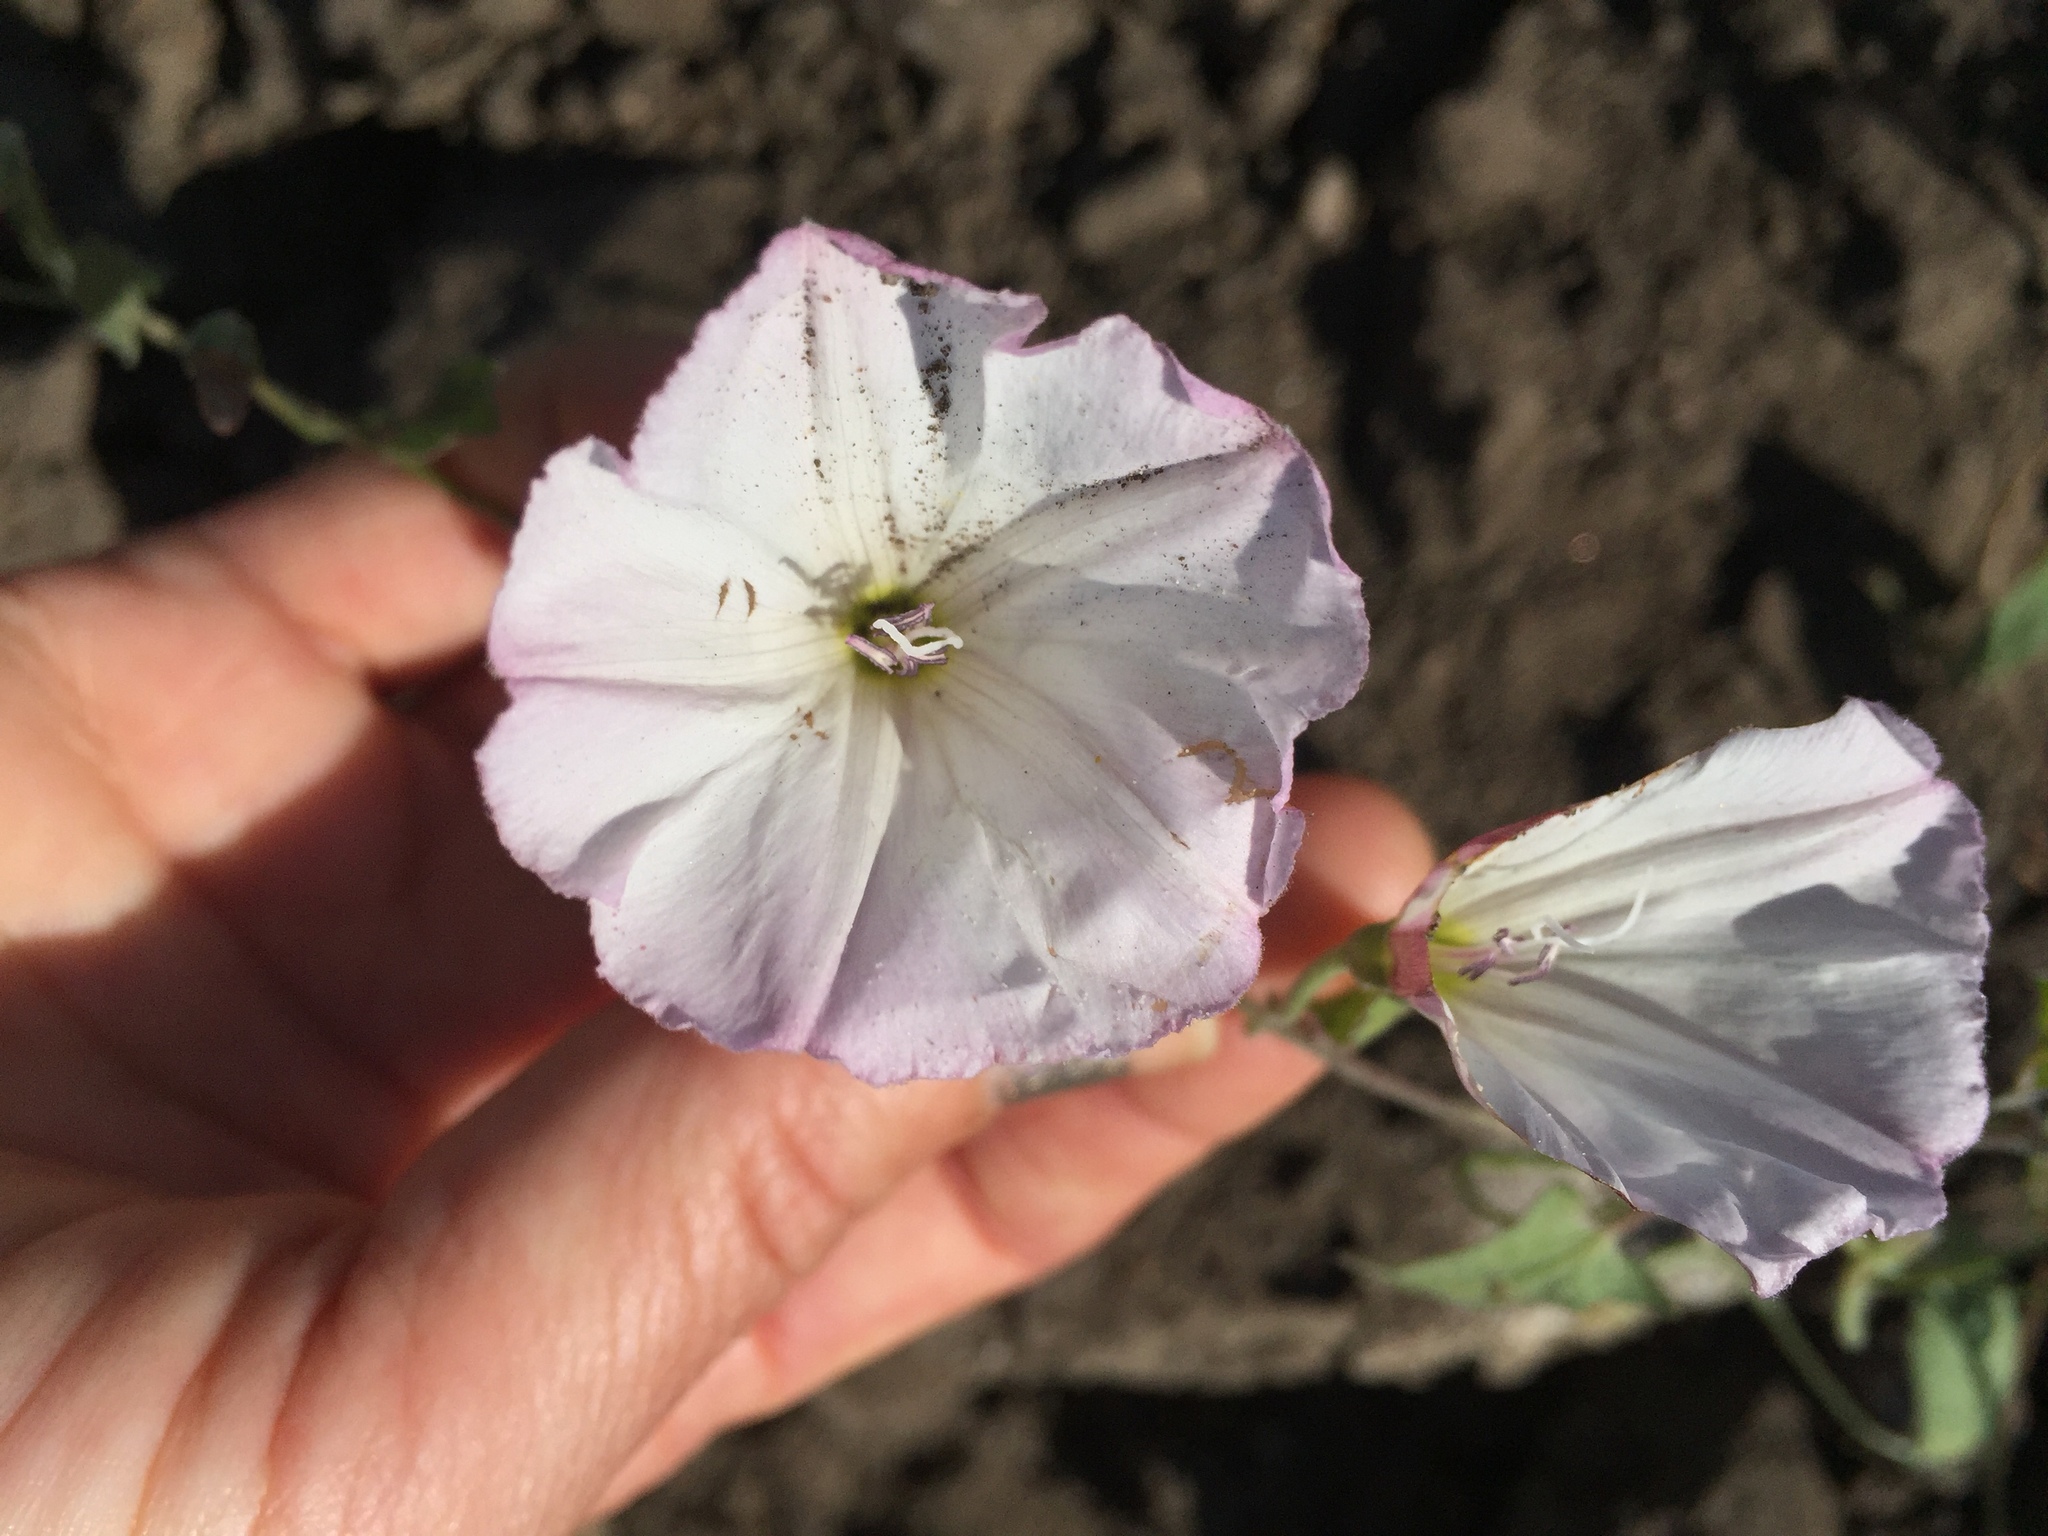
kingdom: Plantae
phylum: Tracheophyta
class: Magnoliopsida
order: Solanales
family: Convolvulaceae
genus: Convolvulus
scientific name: Convolvulus arvensis
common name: Field bindweed
